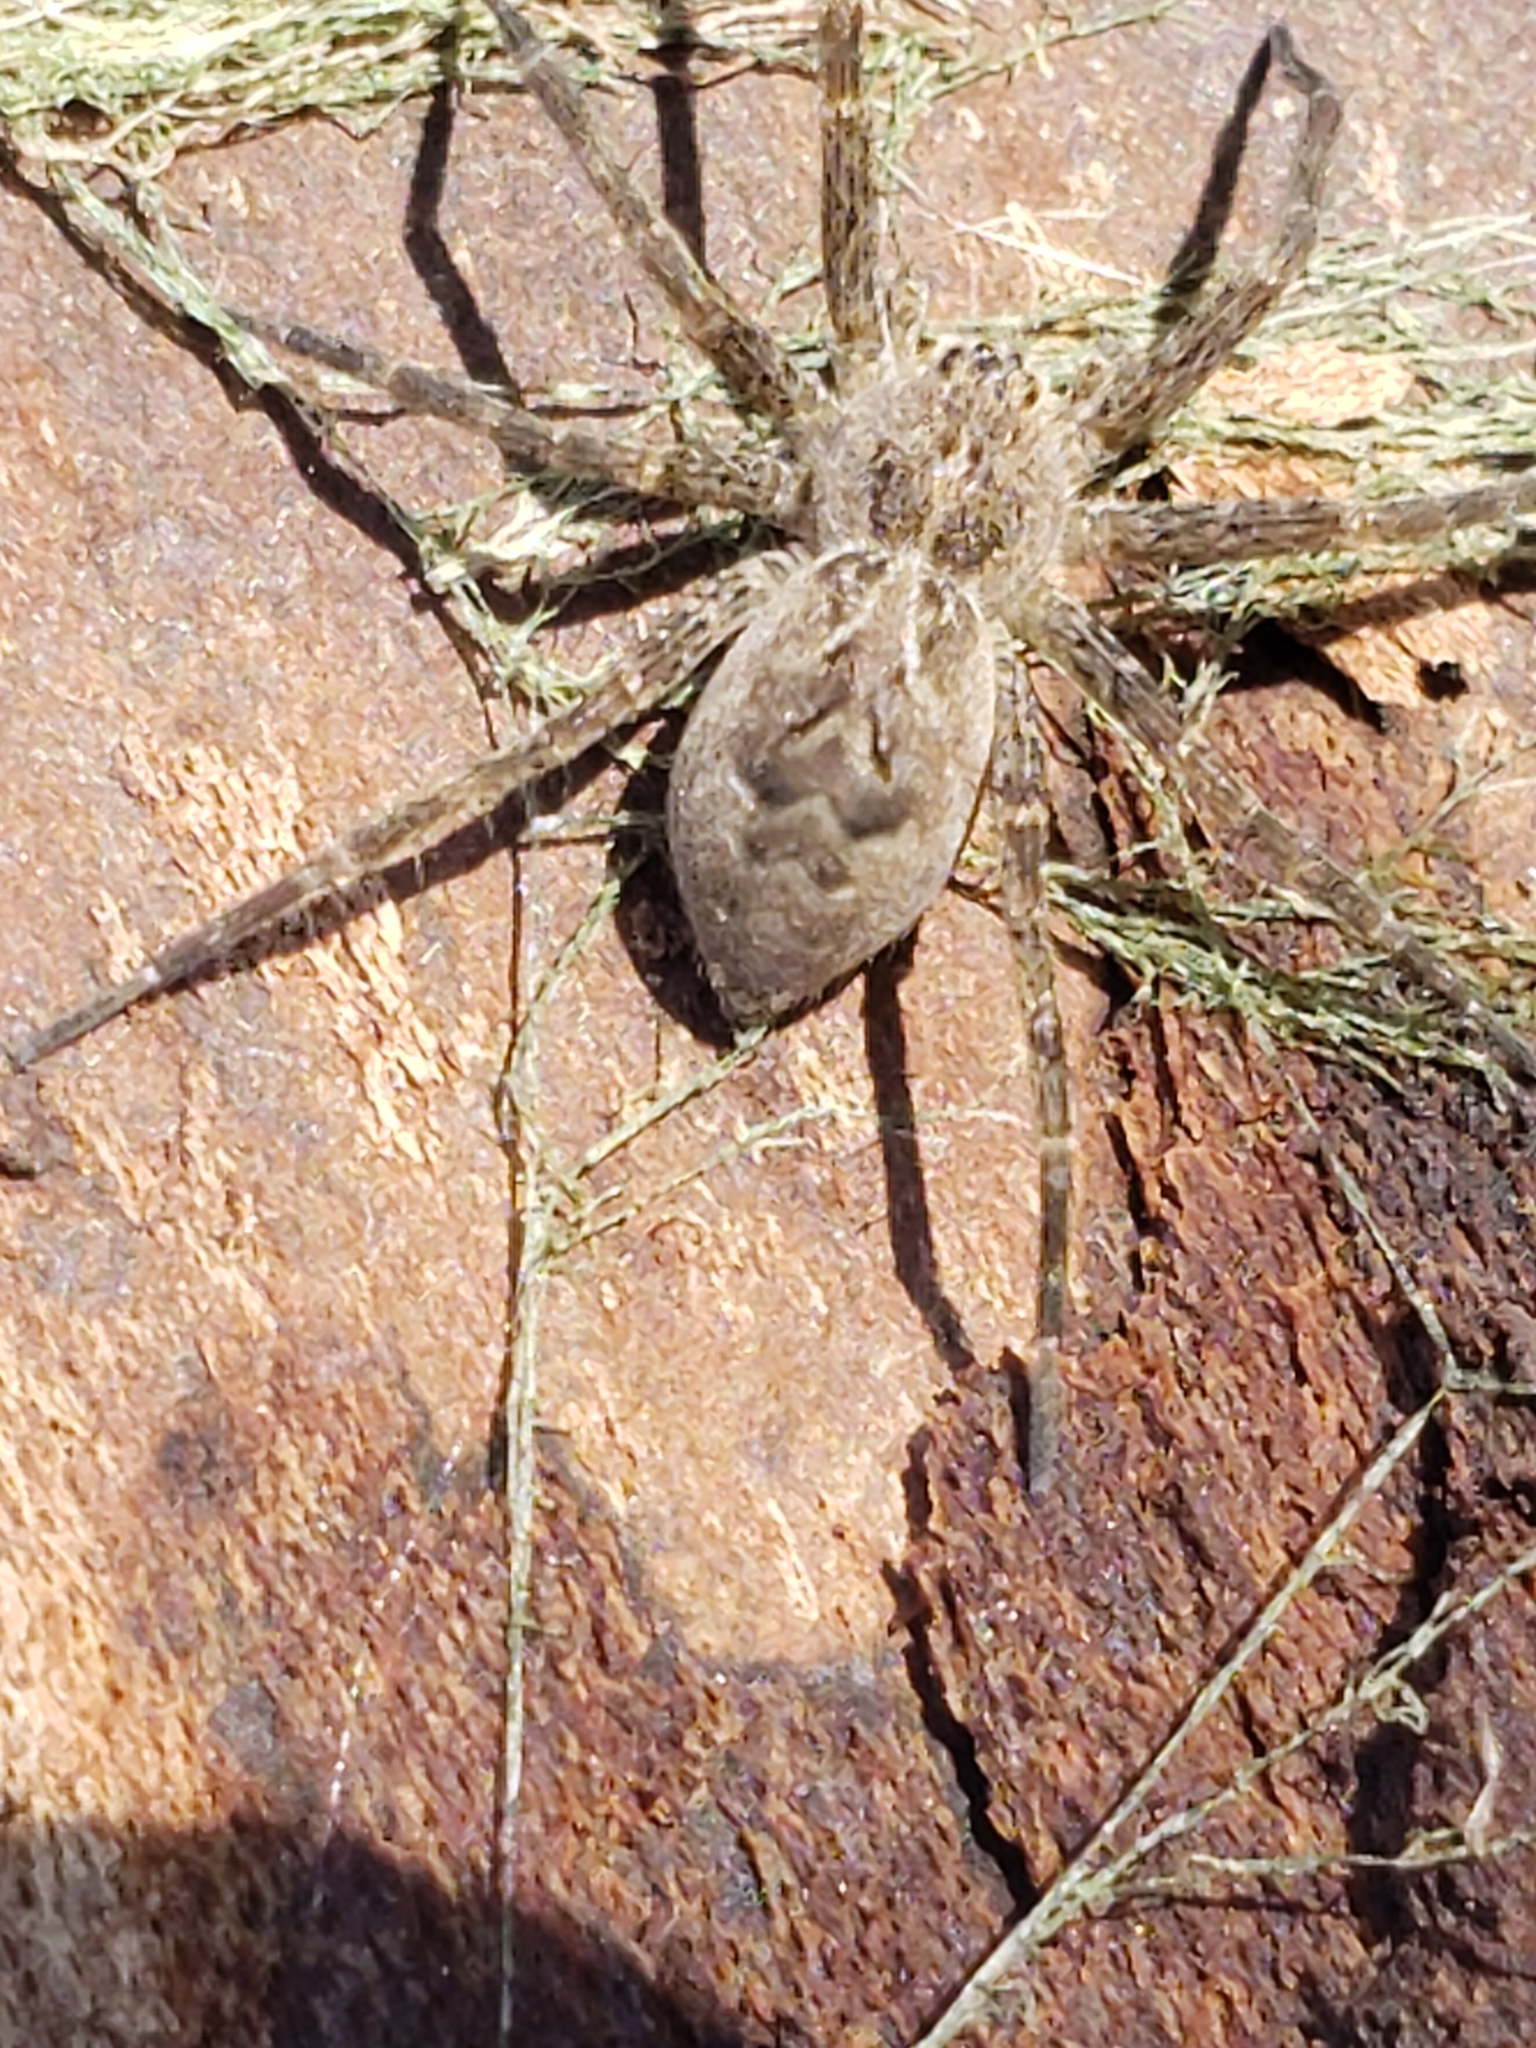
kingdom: Animalia
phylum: Arthropoda
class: Arachnida
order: Araneae
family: Pisauridae
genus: Dolomedes
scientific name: Dolomedes scriptus
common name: Striped fishing spider
